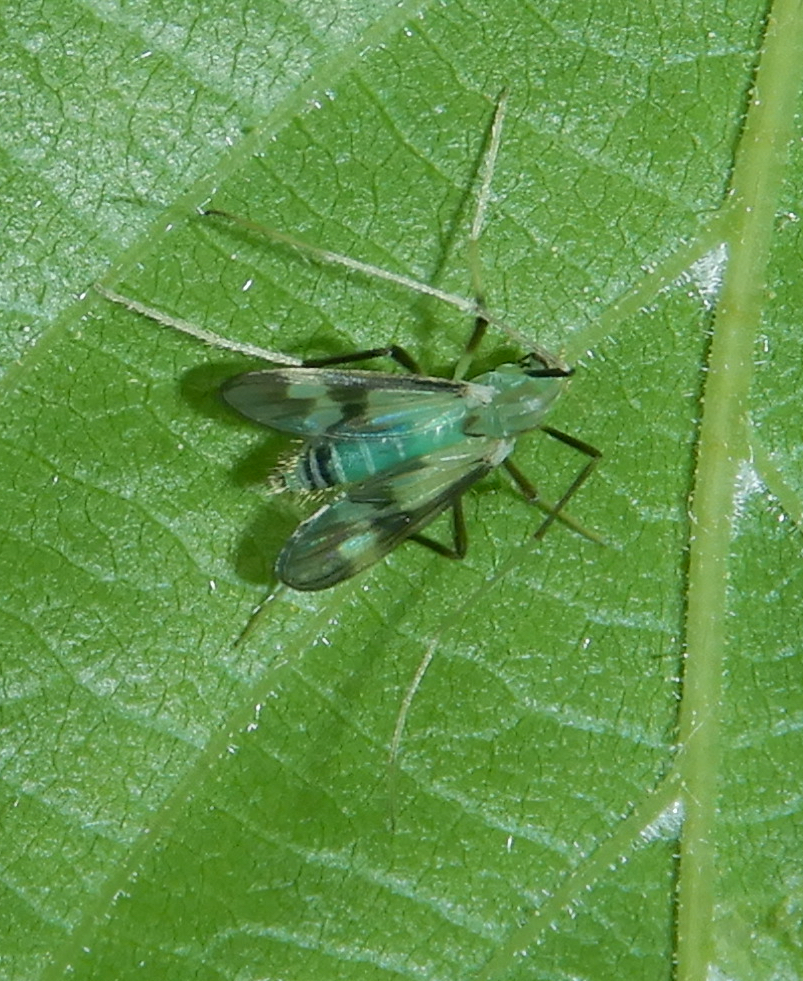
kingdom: Animalia
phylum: Arthropoda
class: Insecta
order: Diptera
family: Chironomidae
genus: Stenochironomus
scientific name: Stenochironomus hilaris
